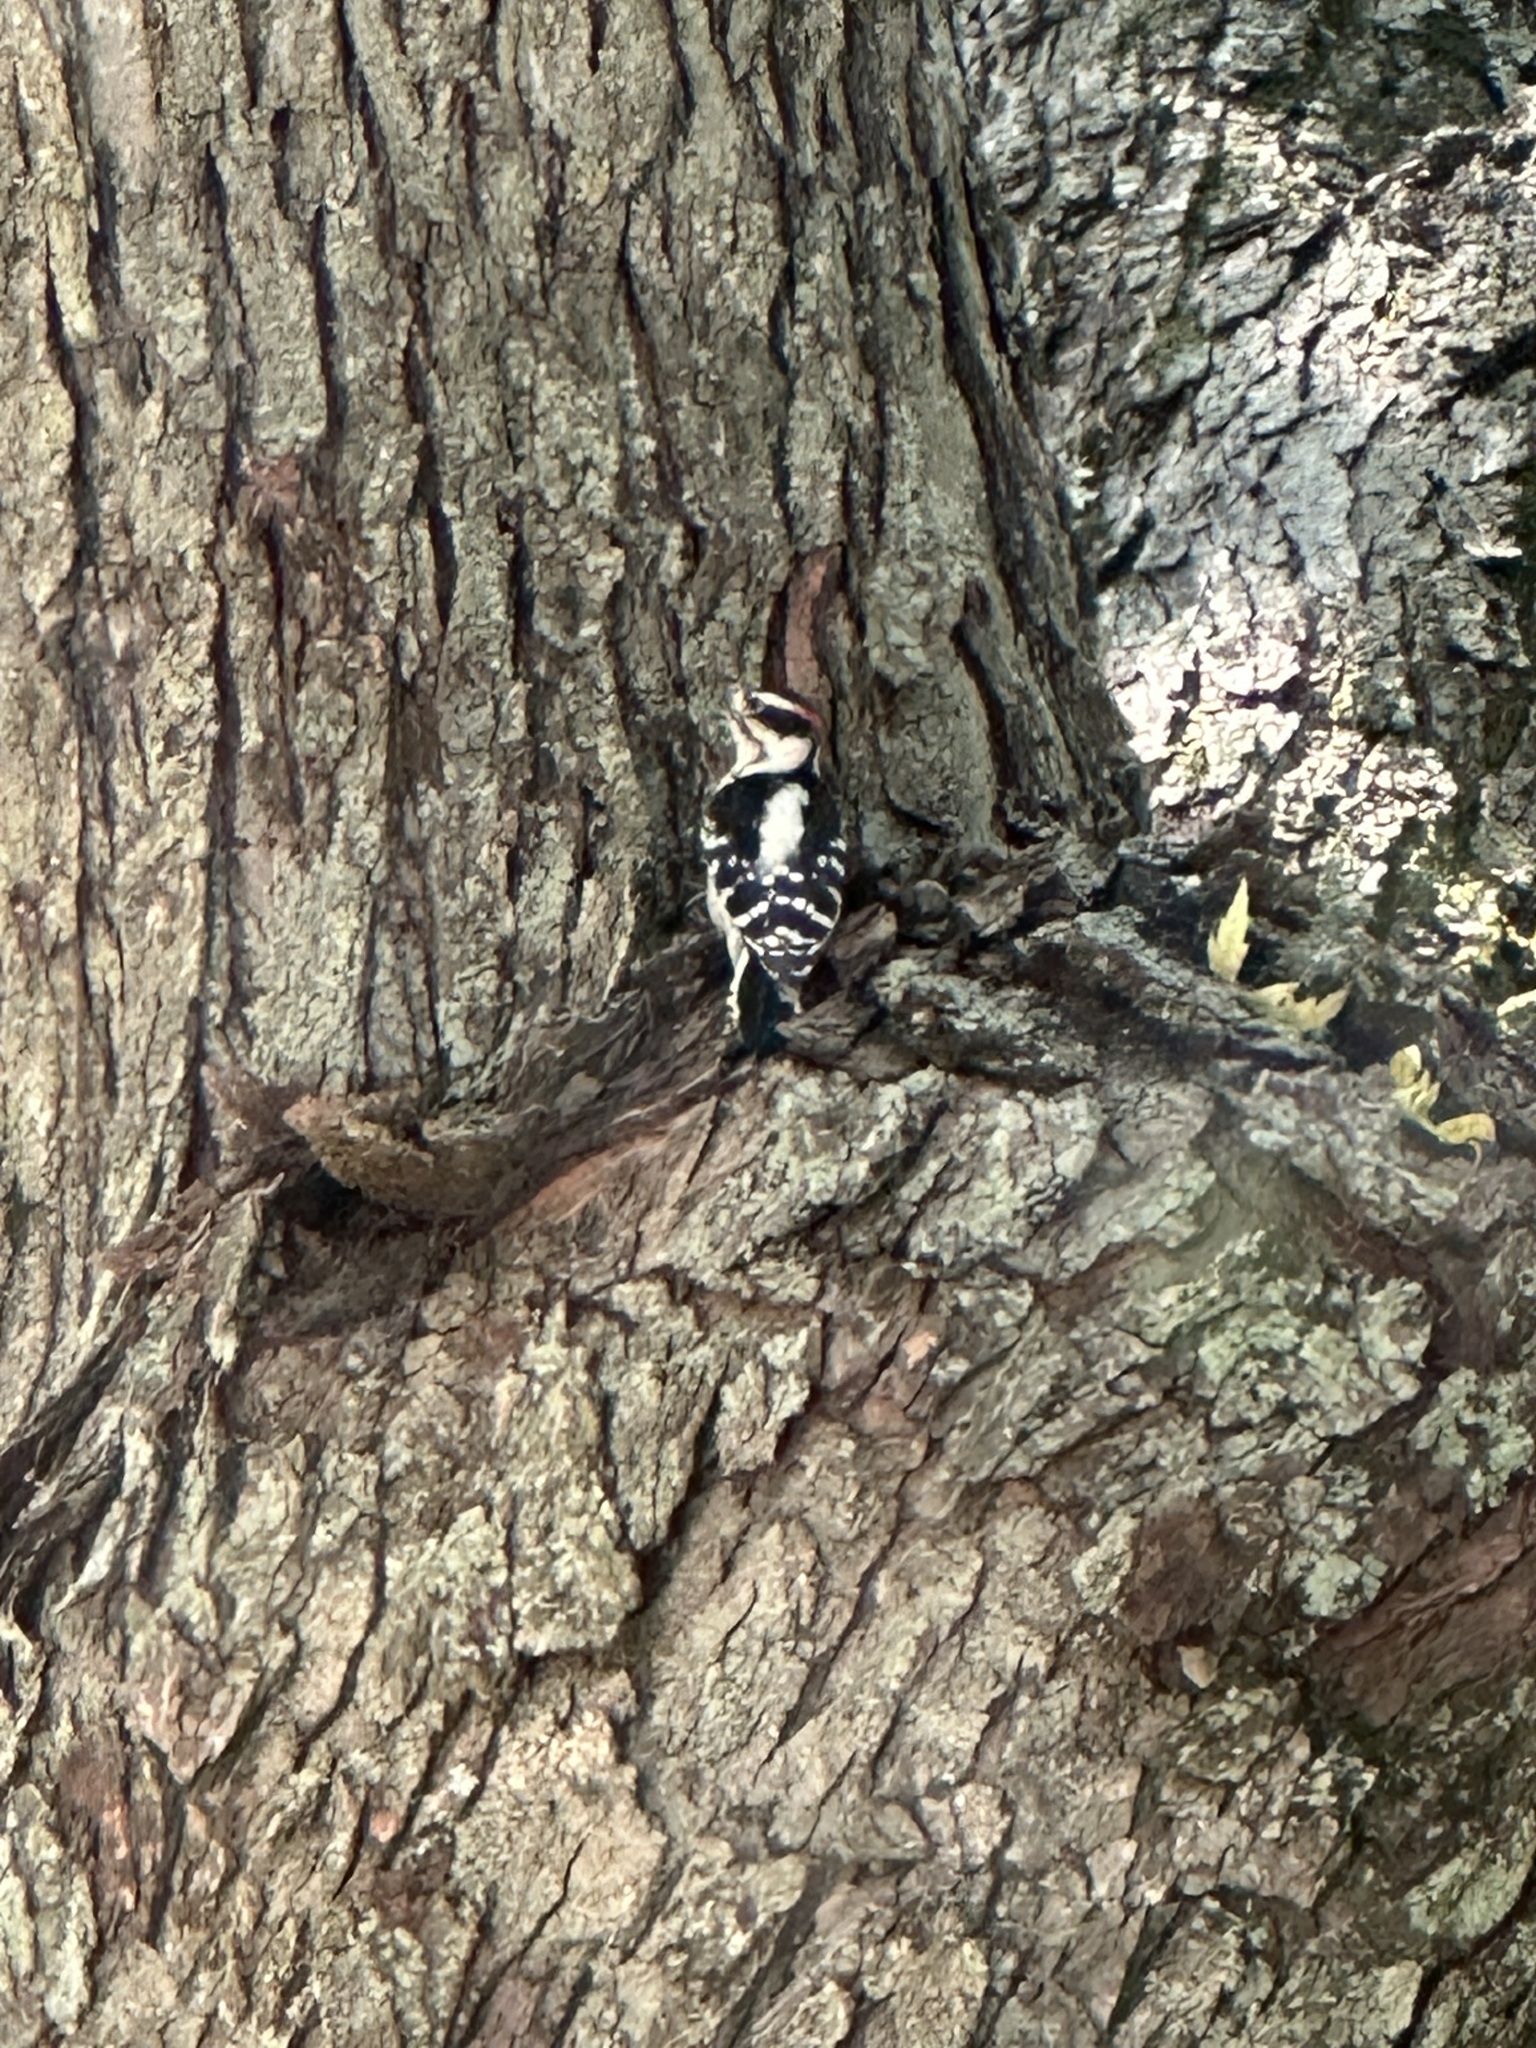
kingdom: Animalia
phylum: Chordata
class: Aves
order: Piciformes
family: Picidae
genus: Dryobates
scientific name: Dryobates pubescens
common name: Downy woodpecker
